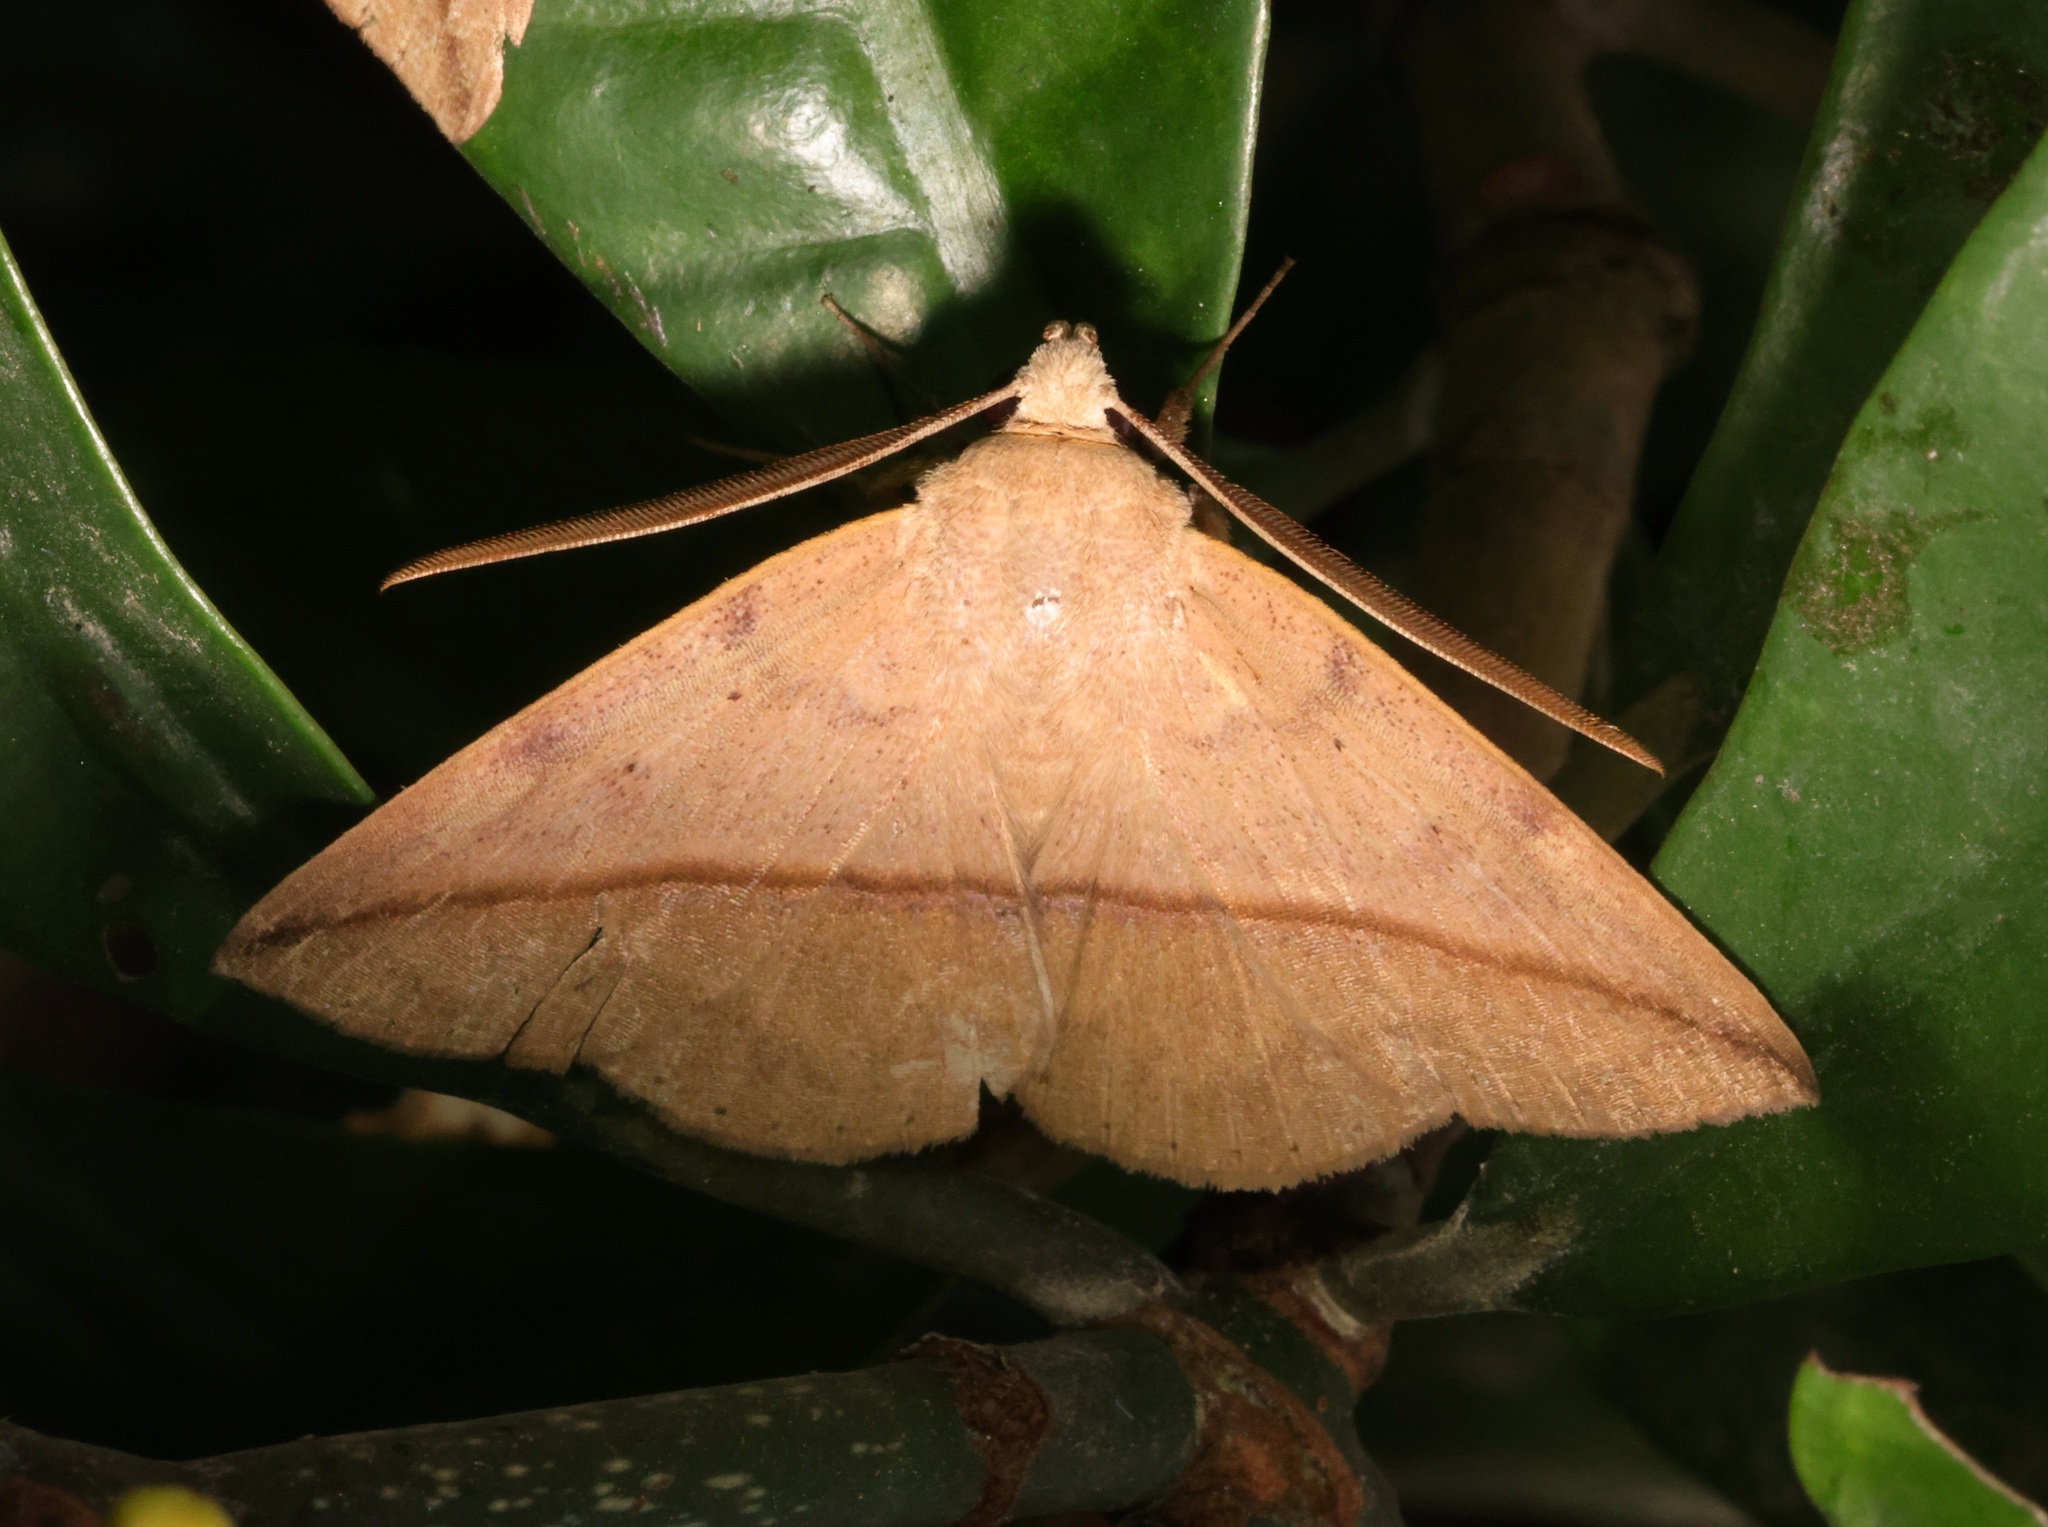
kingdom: Animalia
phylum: Arthropoda
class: Insecta
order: Lepidoptera
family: Erebidae
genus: Ugia
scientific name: Ugia purpurea
